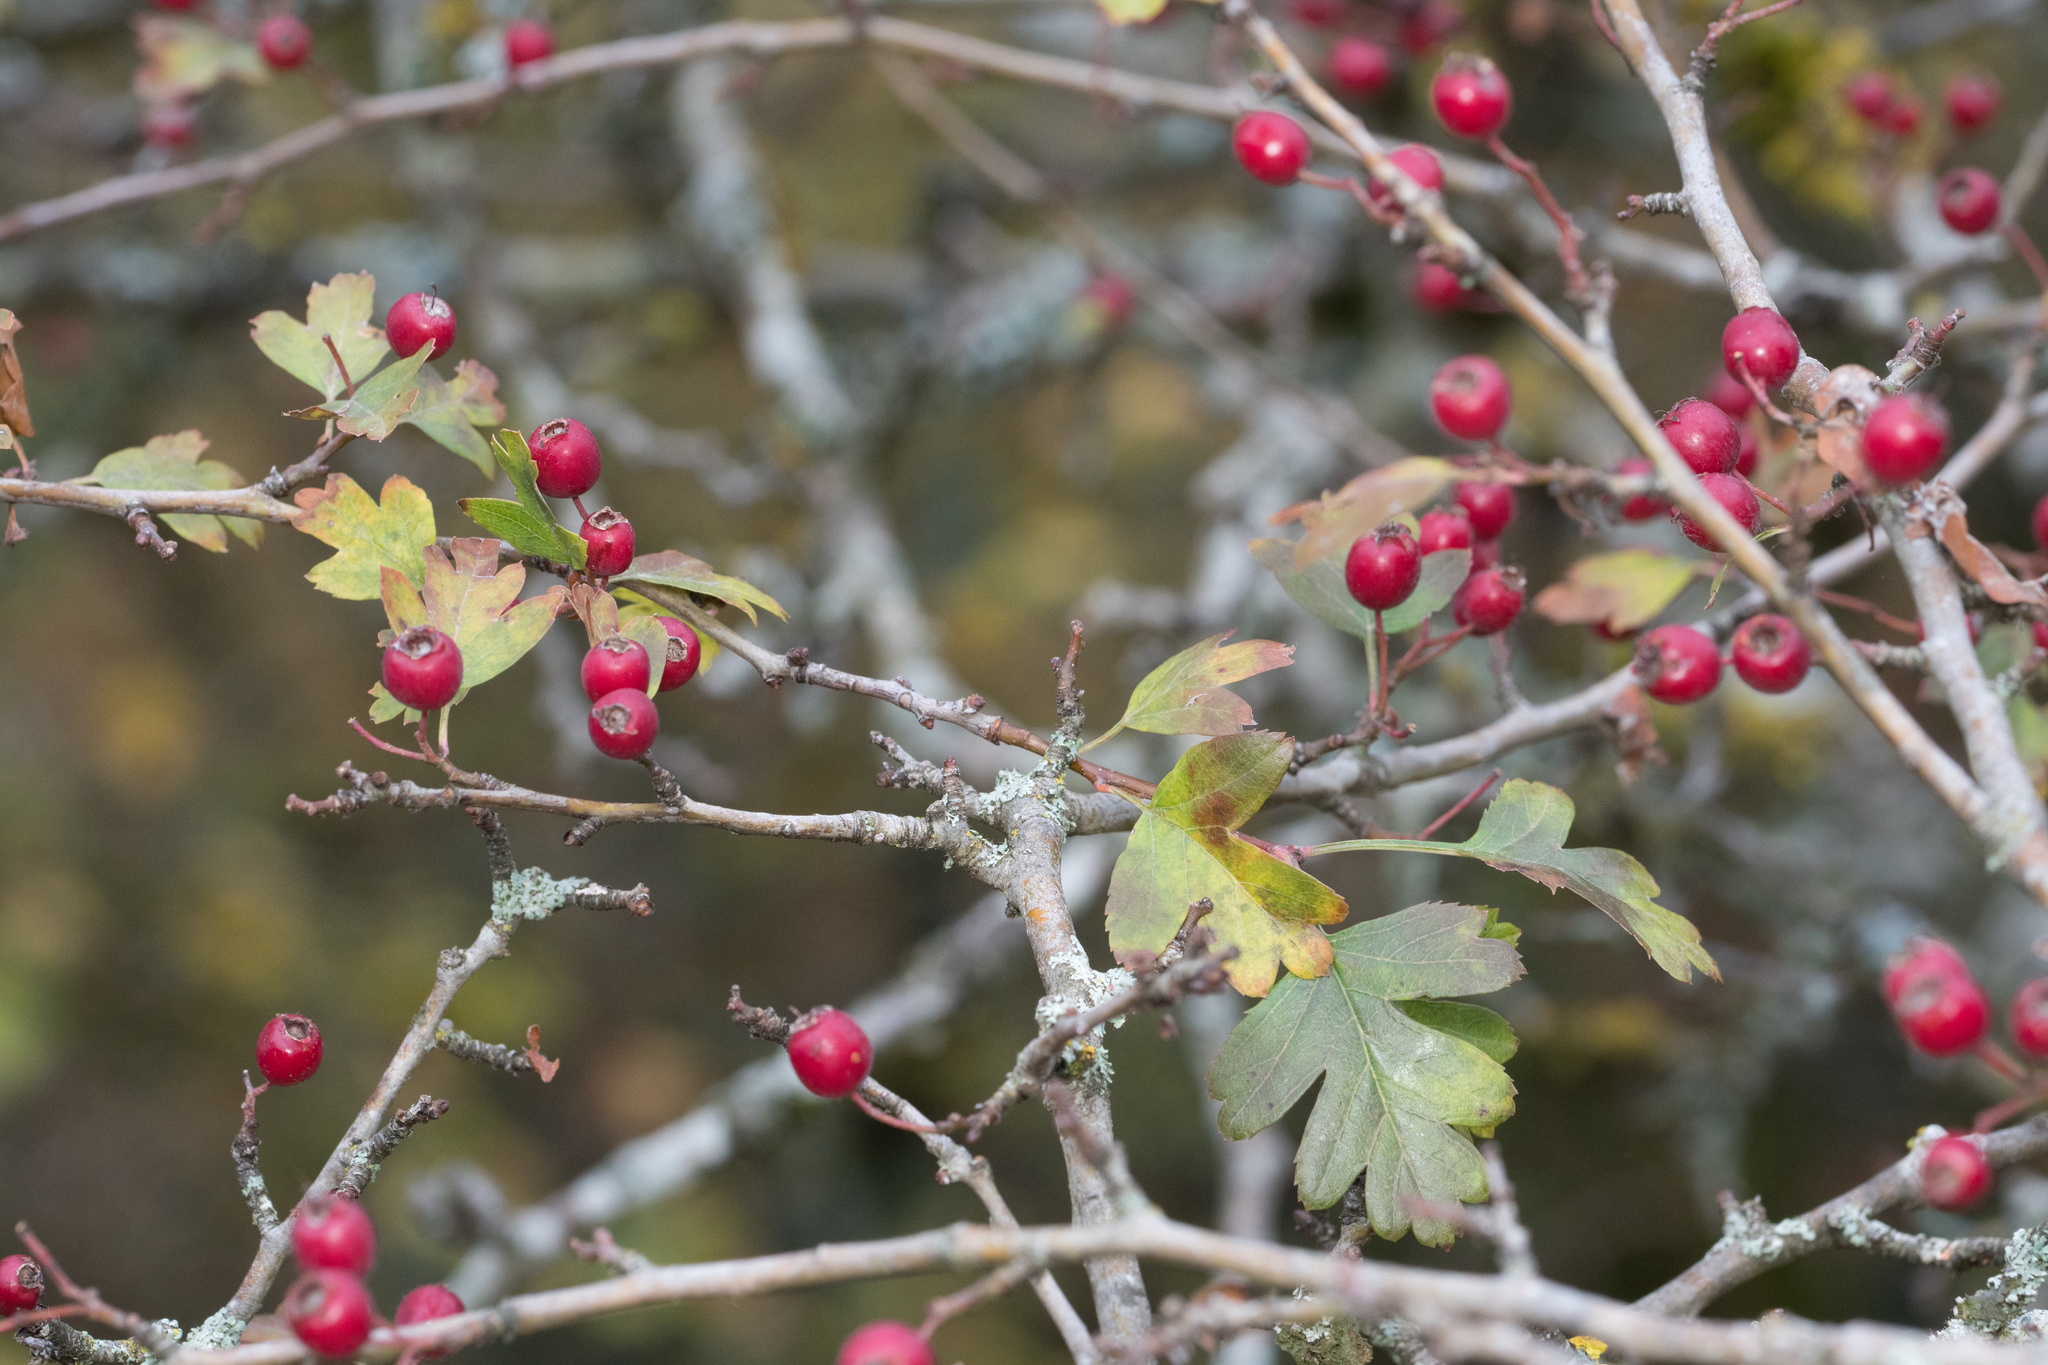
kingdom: Plantae
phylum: Tracheophyta
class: Magnoliopsida
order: Rosales
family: Rosaceae
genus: Crataegus
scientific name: Crataegus monogyna
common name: Hawthorn
